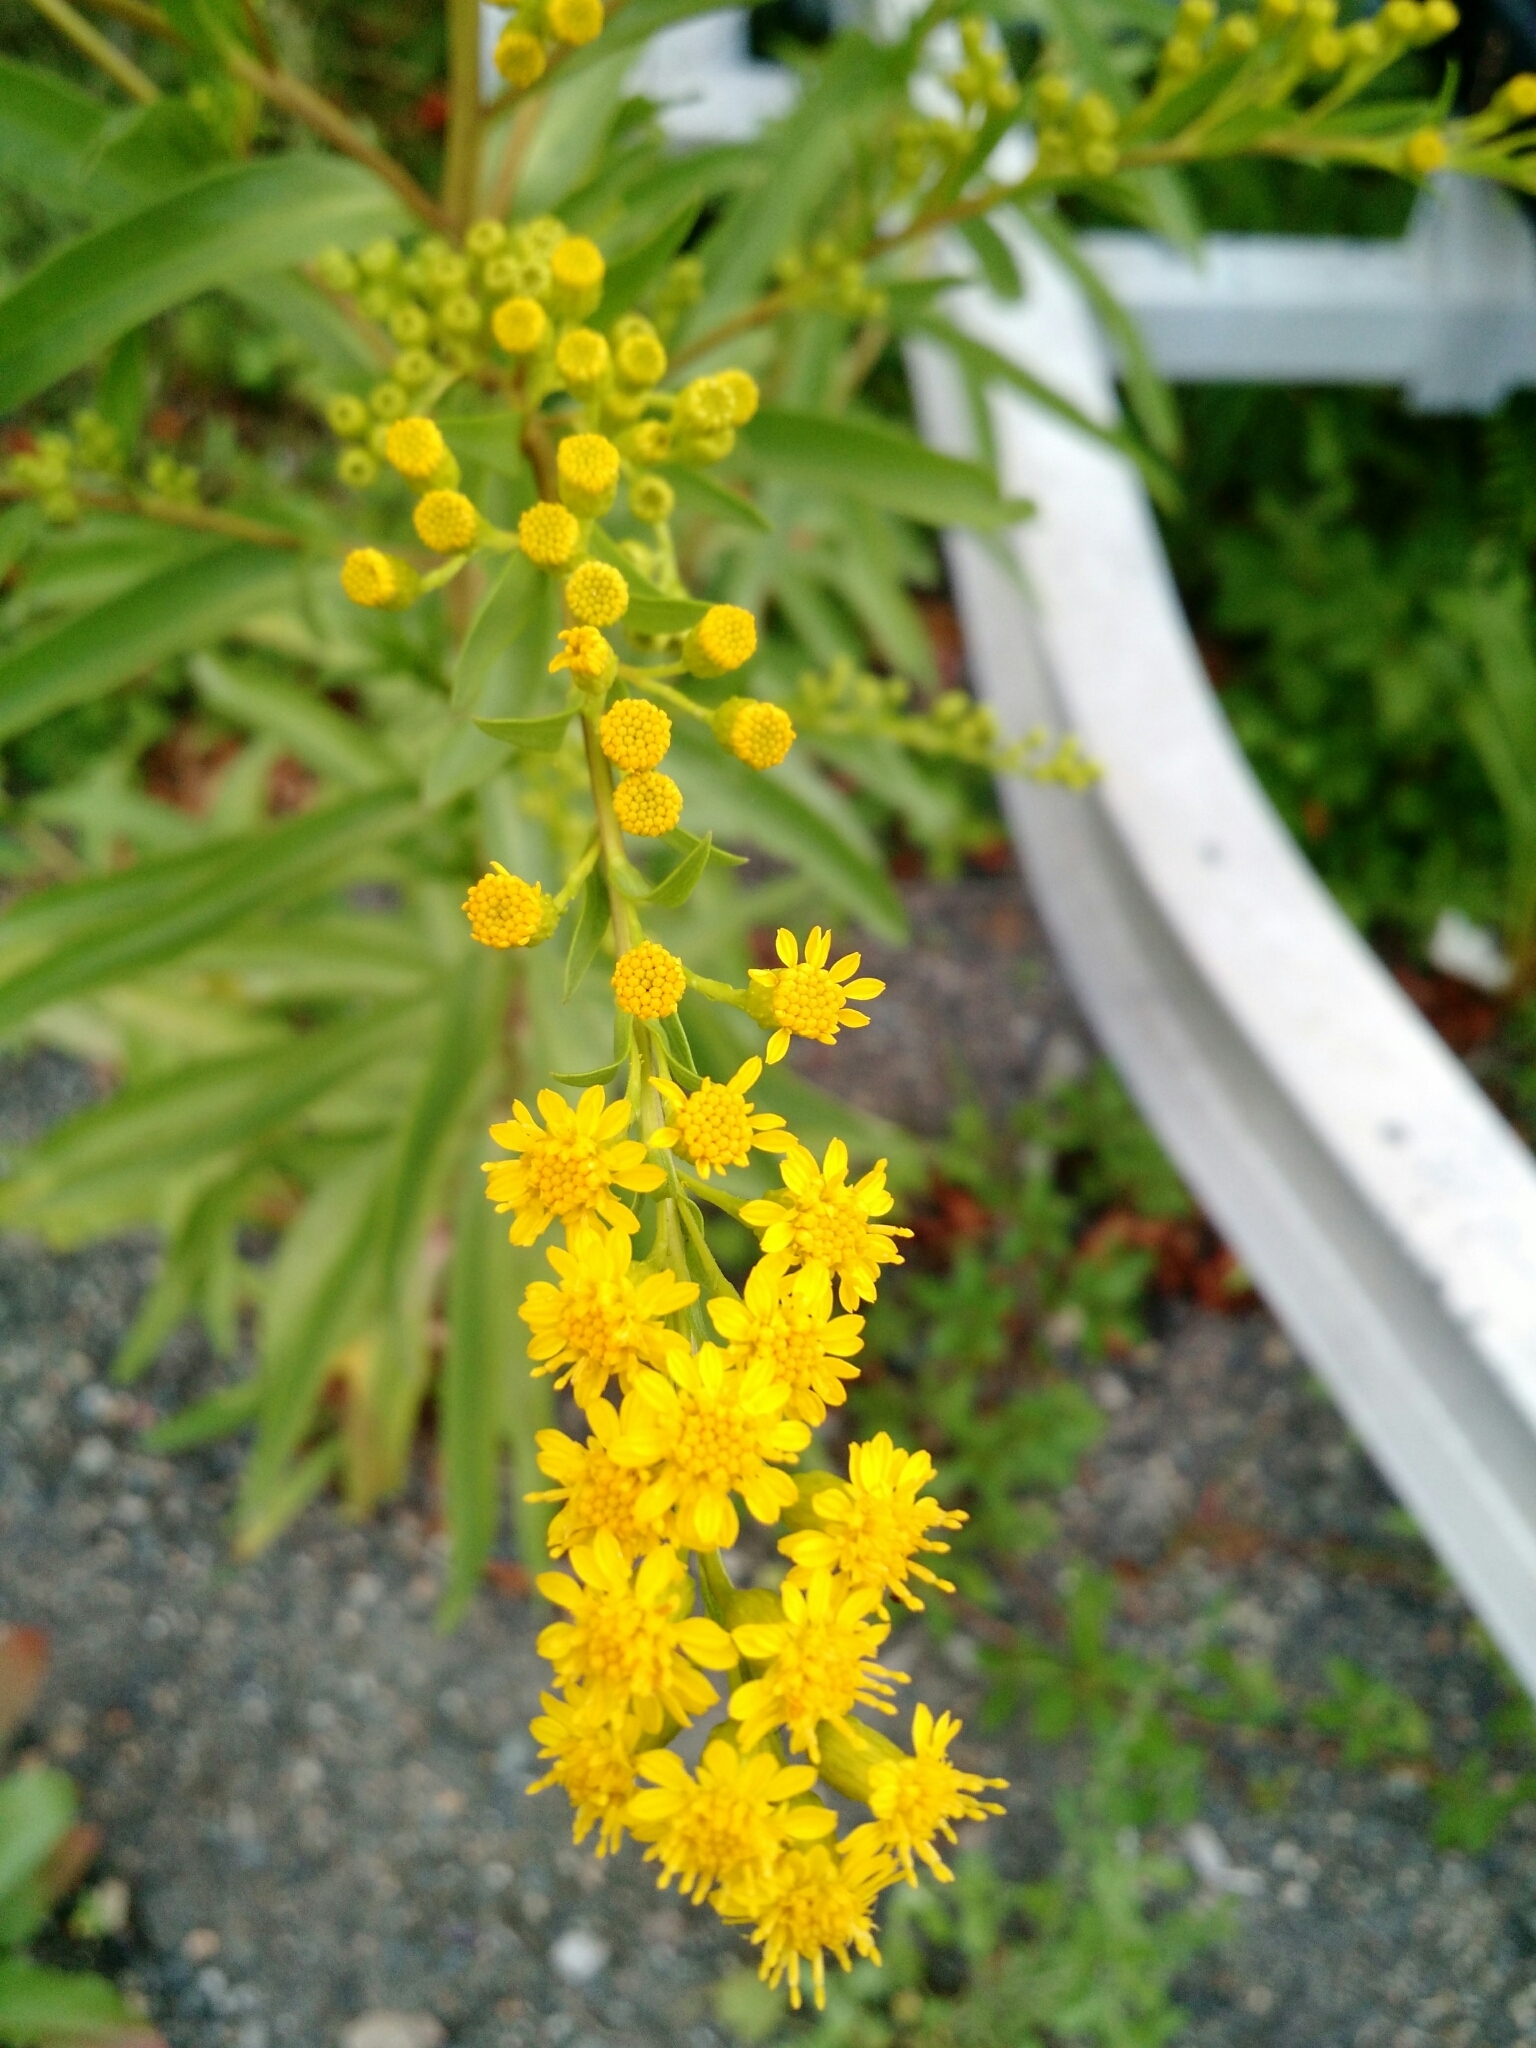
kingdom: Plantae
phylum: Tracheophyta
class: Magnoliopsida
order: Asterales
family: Asteraceae
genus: Solidago
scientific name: Solidago sempervirens
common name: Salt-marsh goldenrod
